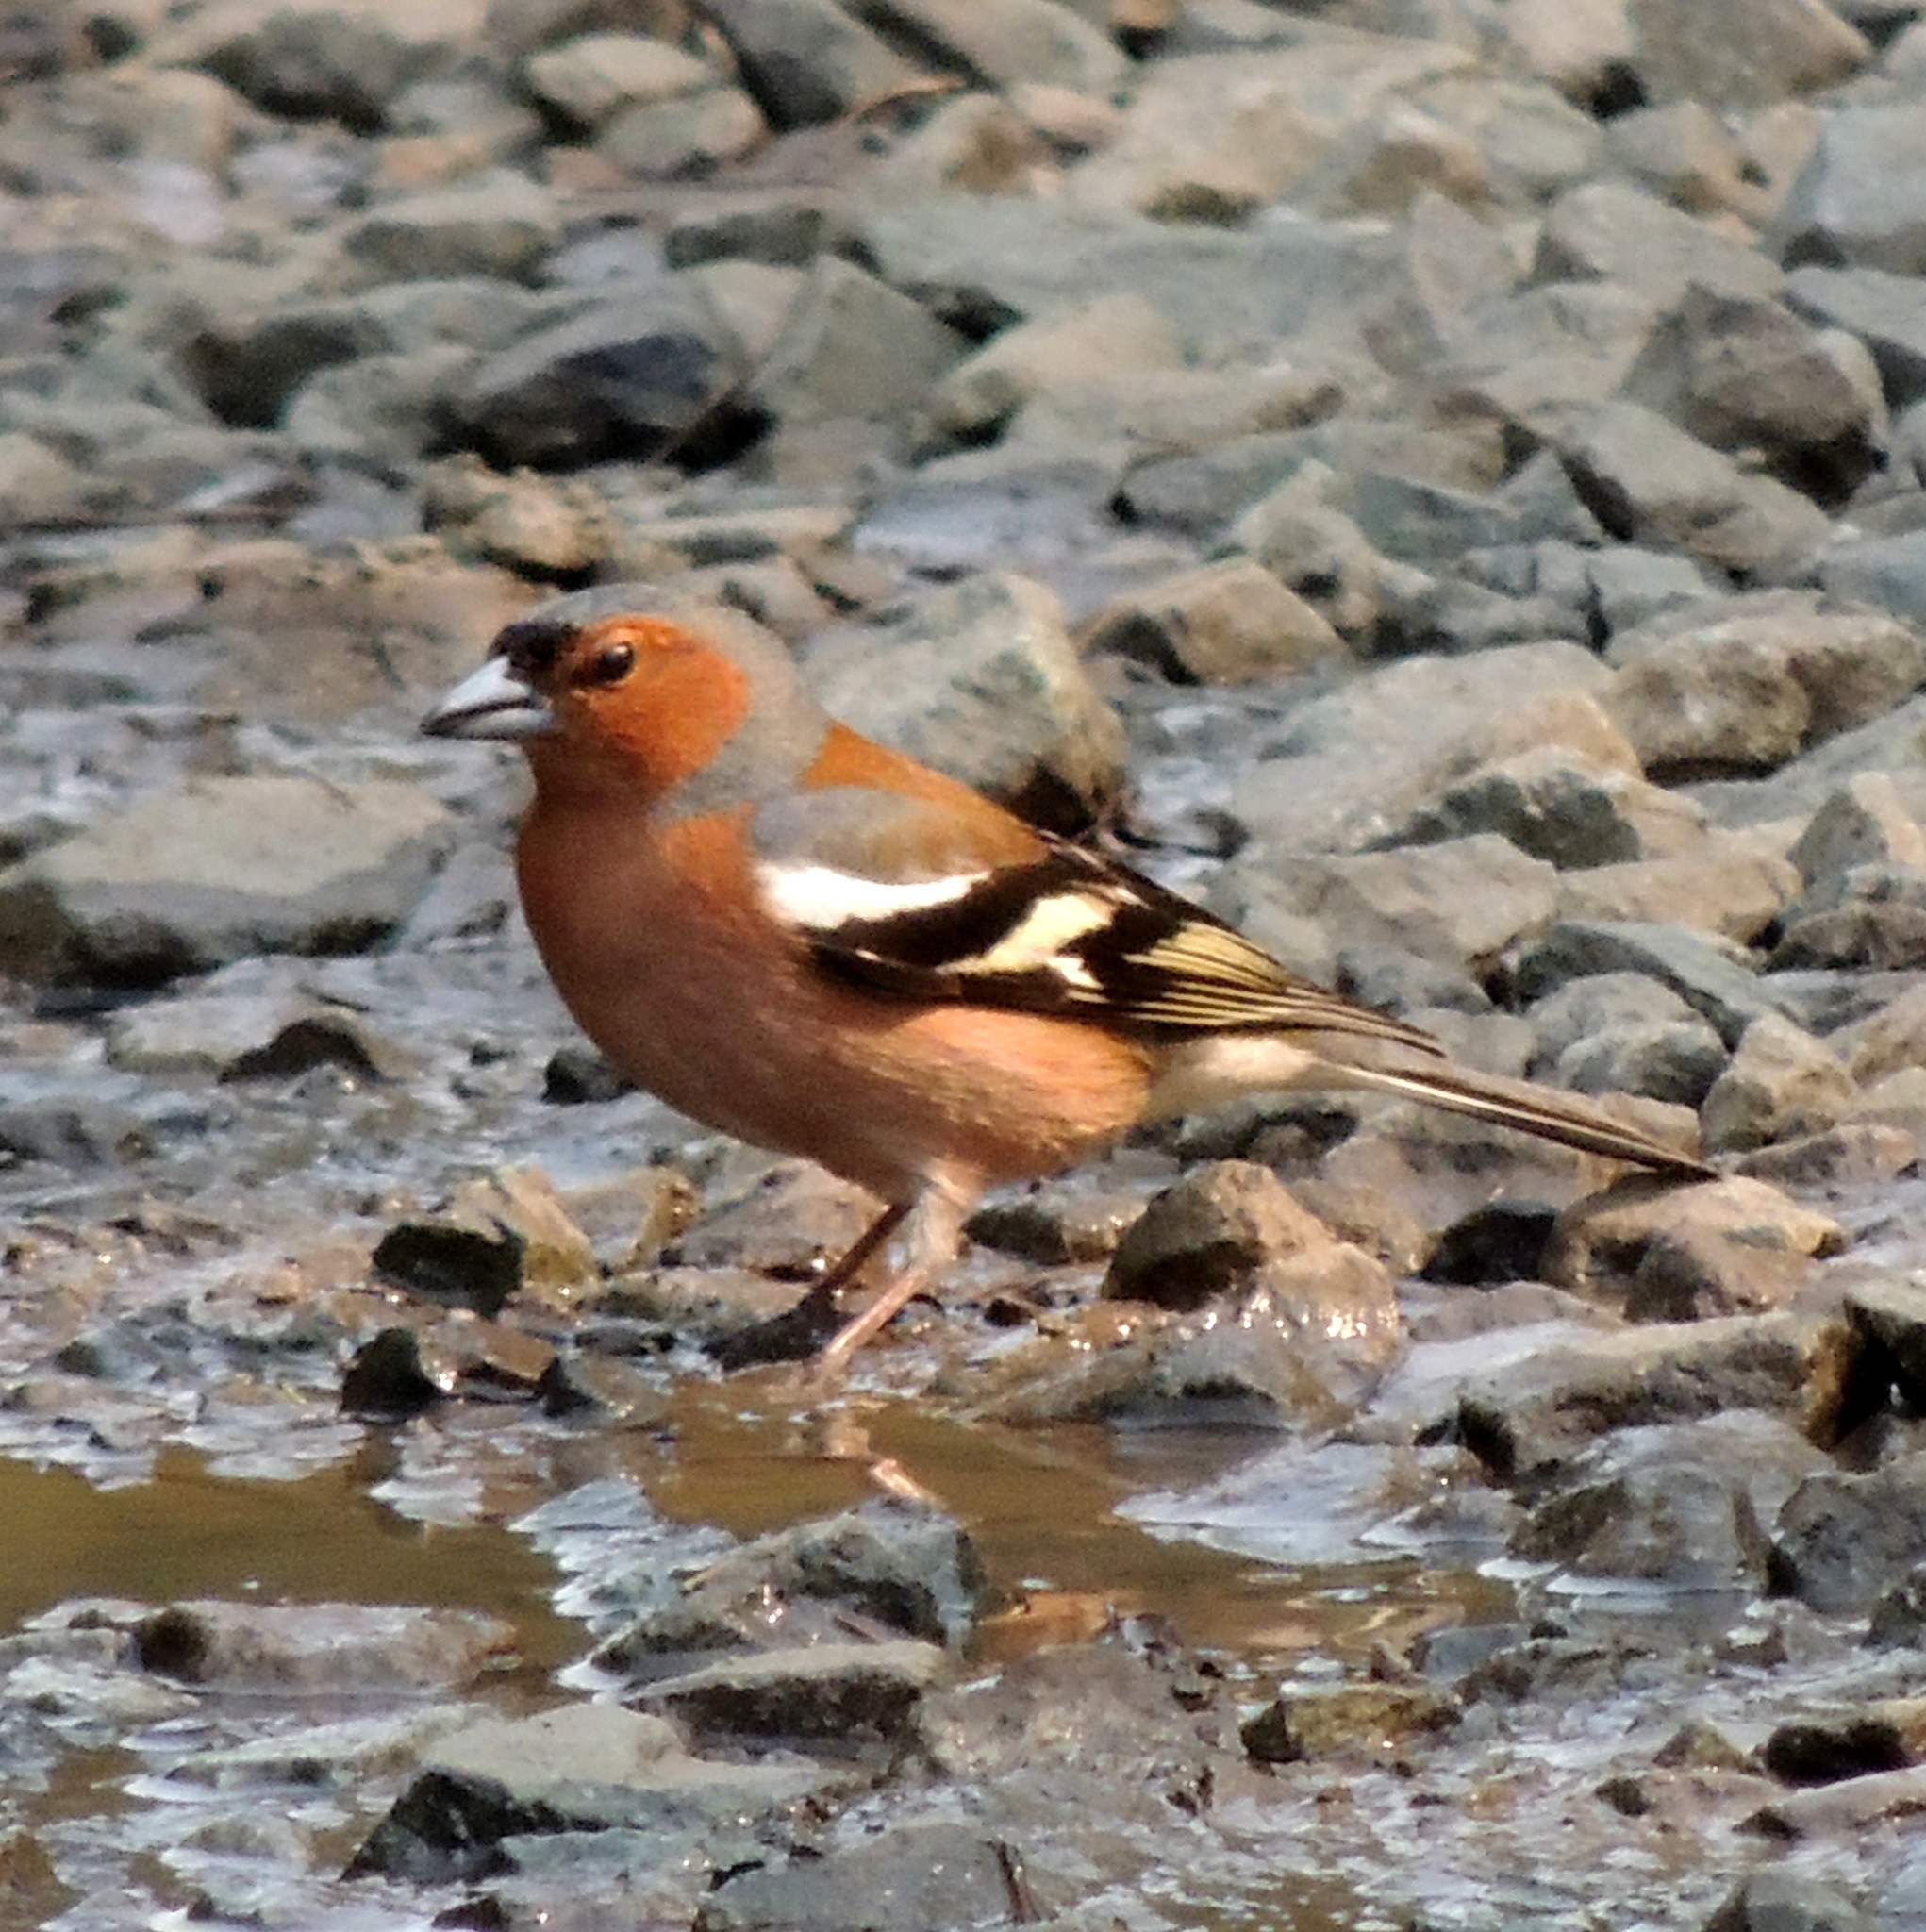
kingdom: Animalia
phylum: Chordata
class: Aves
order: Passeriformes
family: Fringillidae
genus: Fringilla
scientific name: Fringilla coelebs
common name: Common chaffinch
